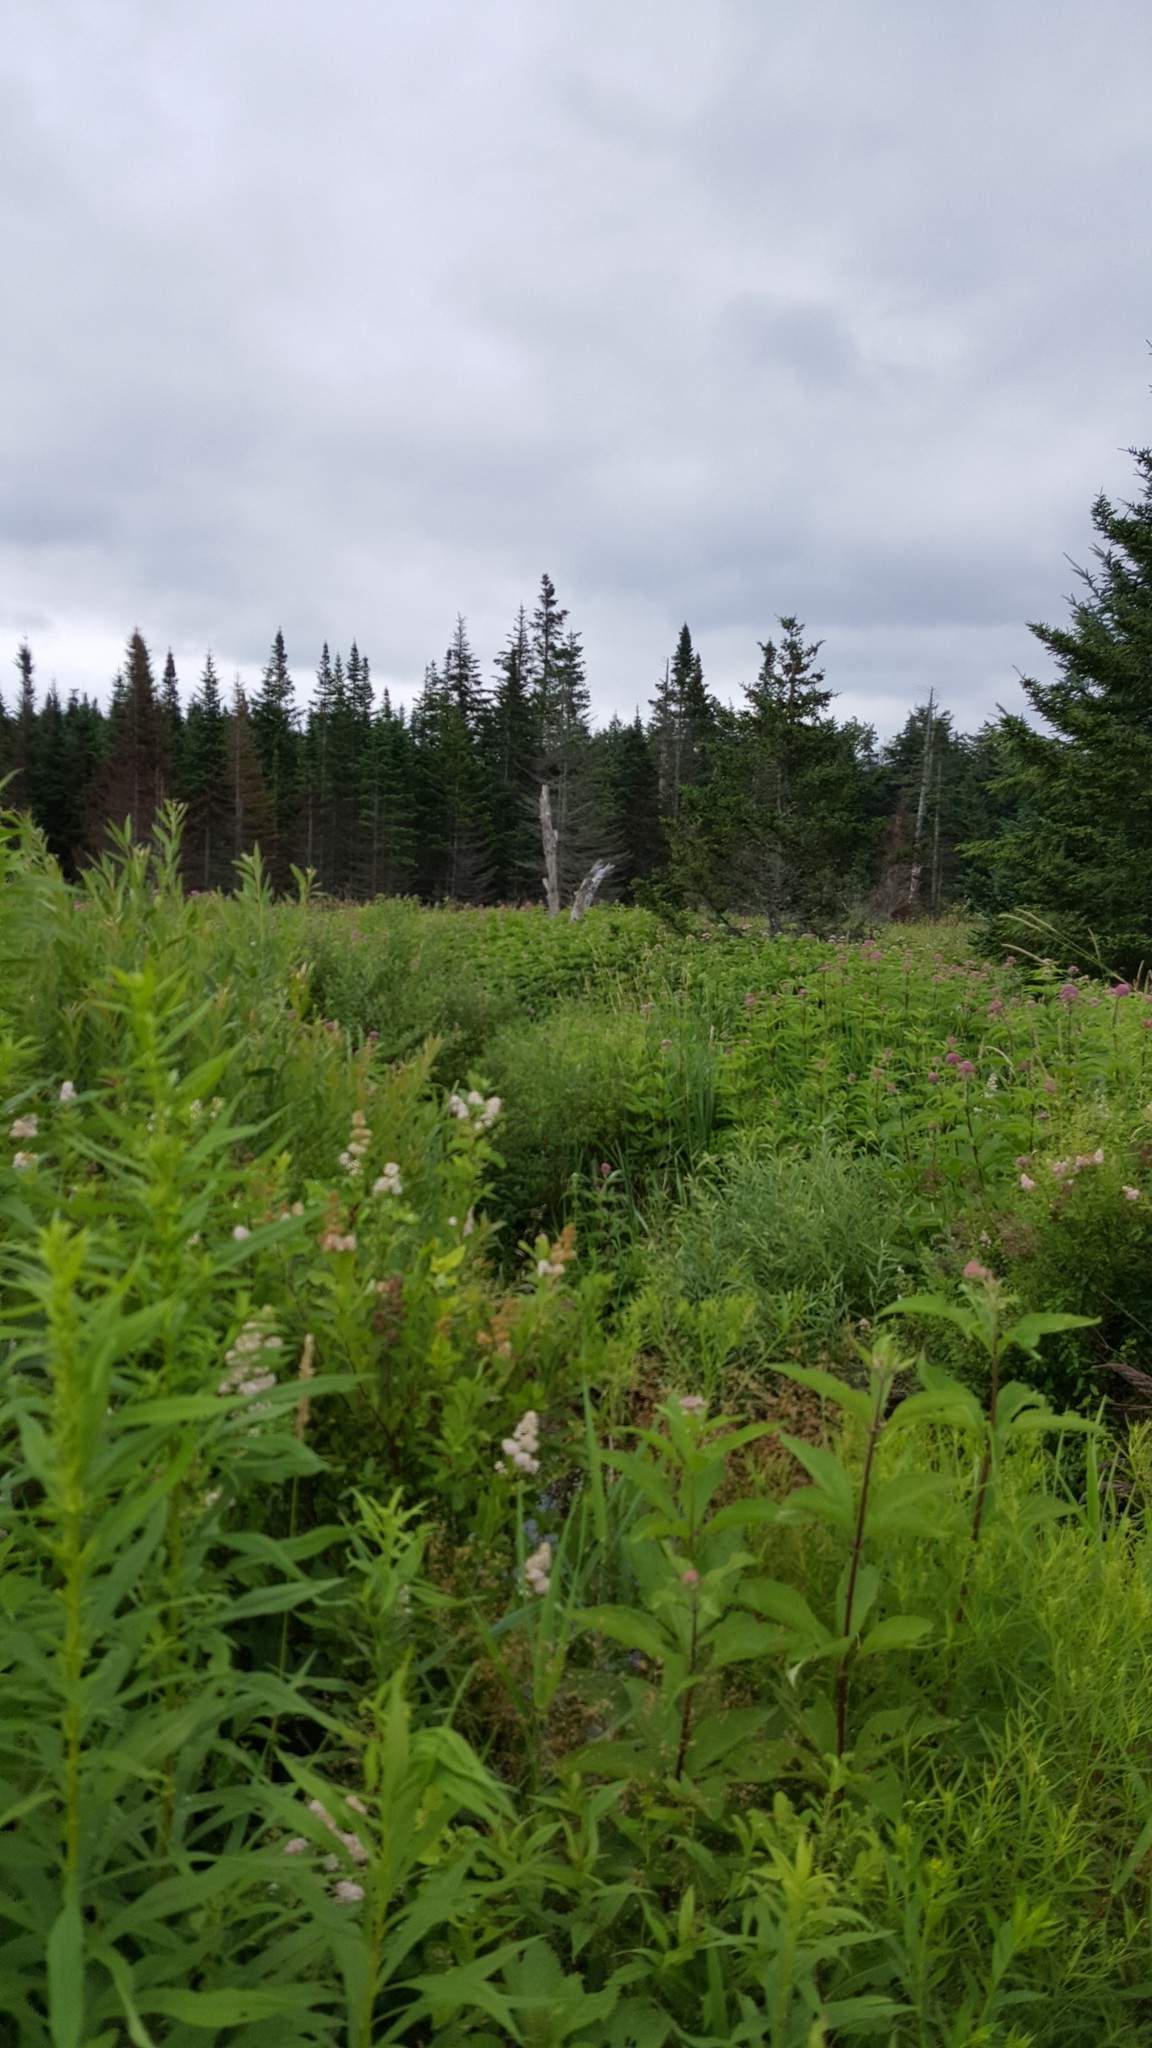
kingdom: Plantae
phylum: Tracheophyta
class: Magnoliopsida
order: Asterales
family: Asteraceae
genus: Eutrochium
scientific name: Eutrochium maculatum
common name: Spotted joe pye weed
